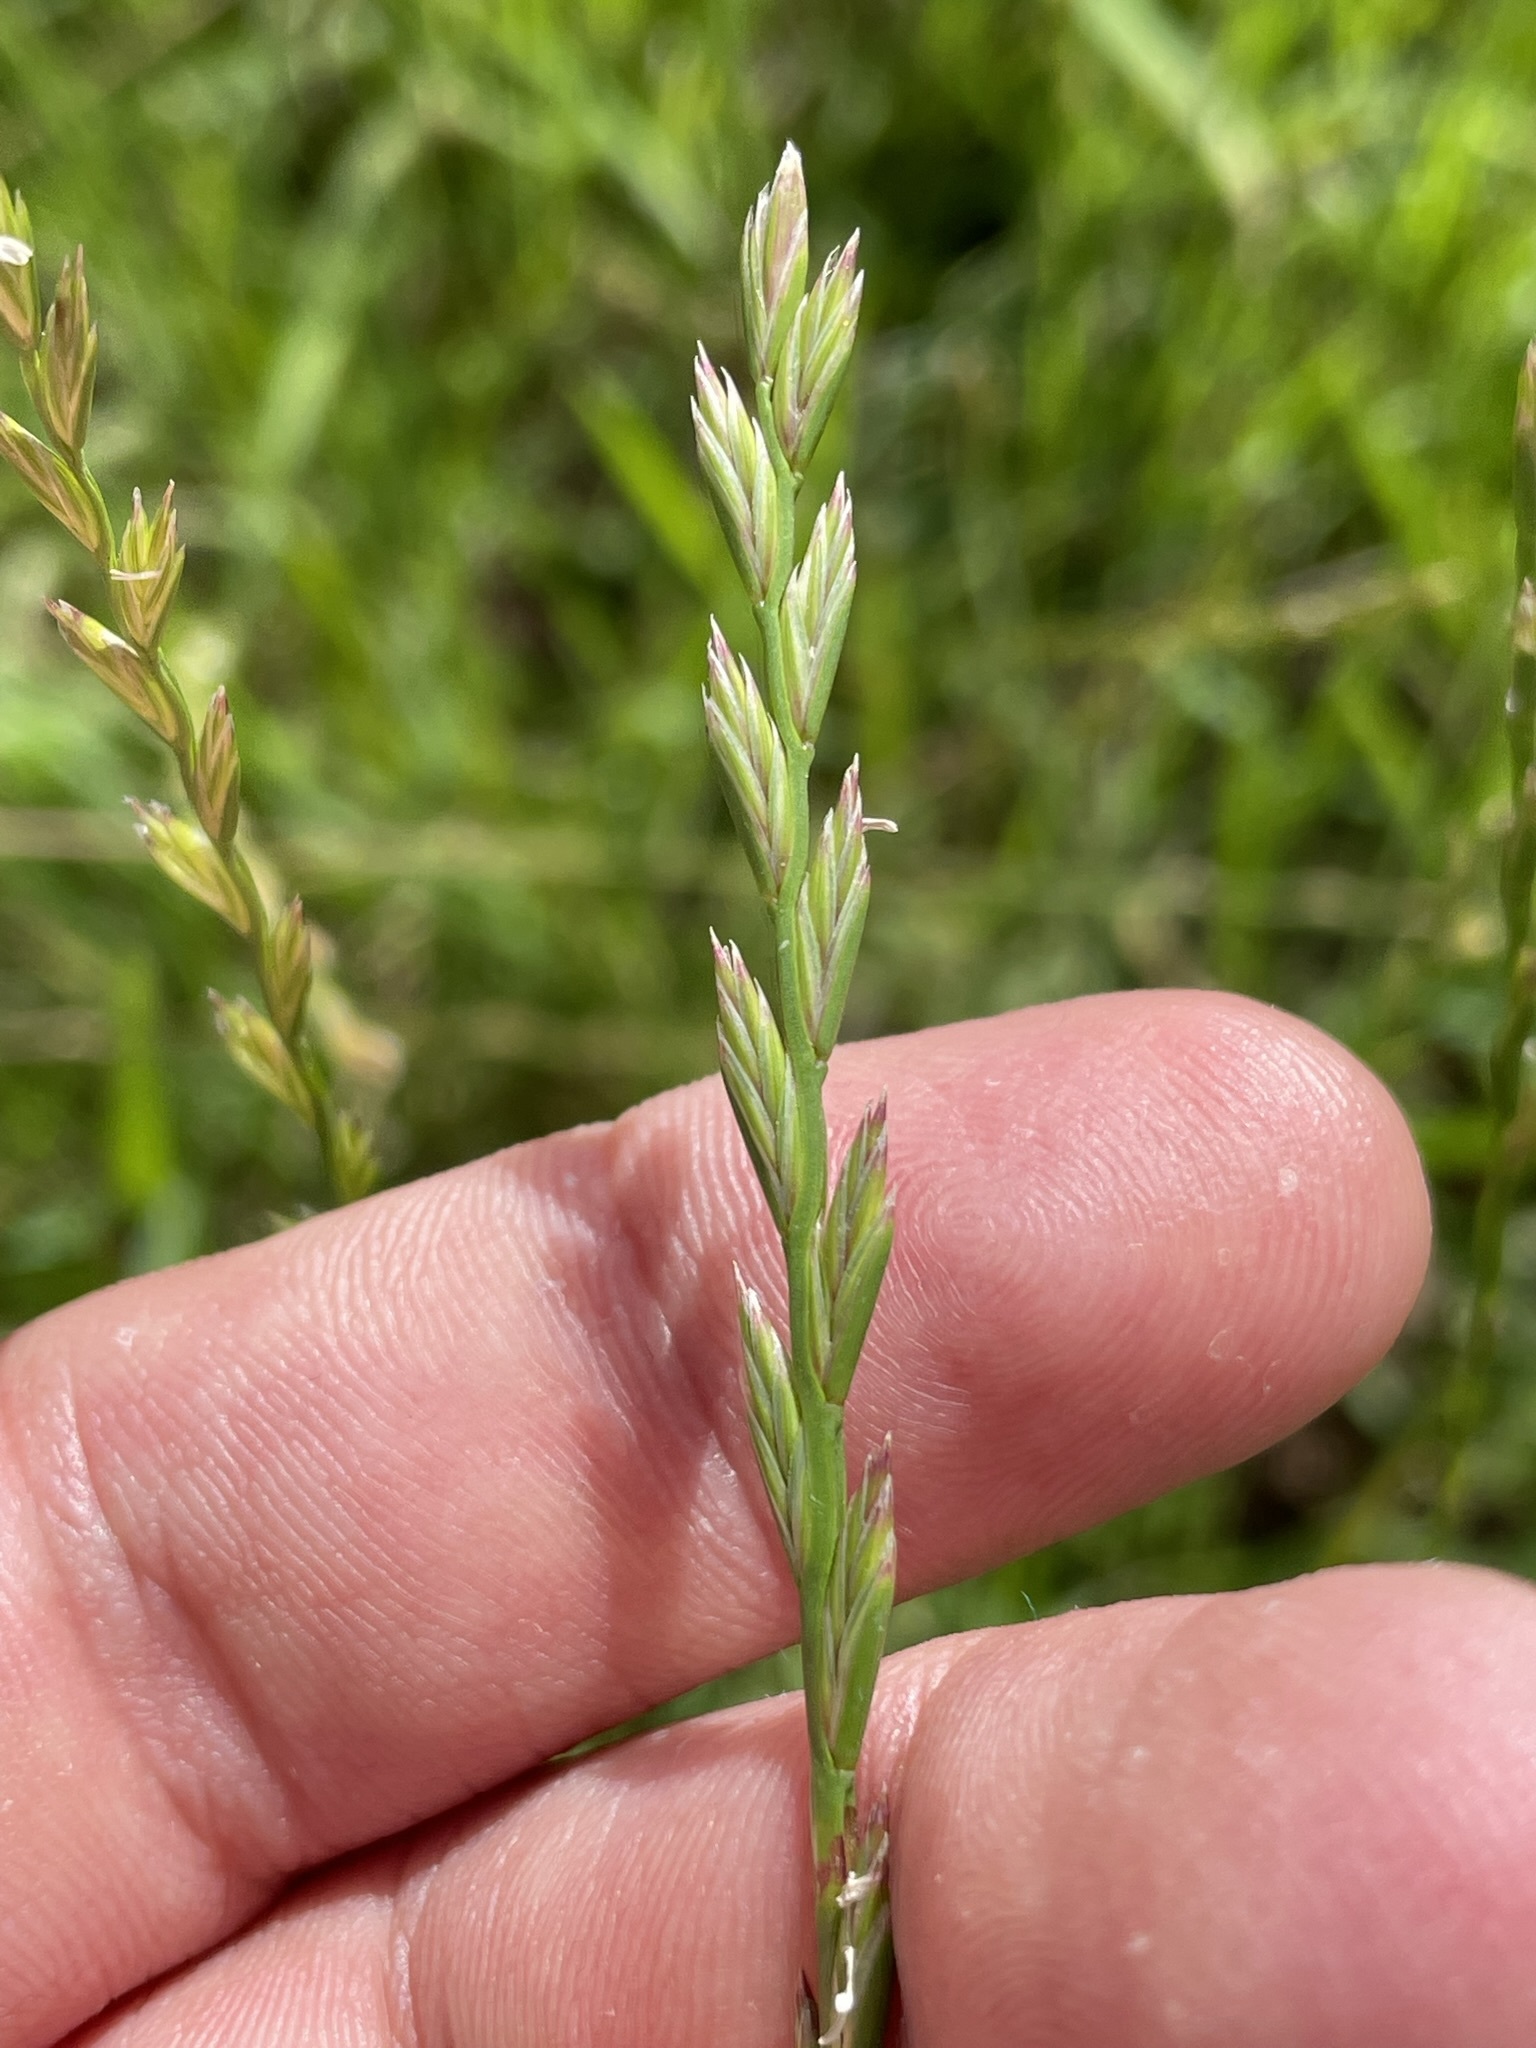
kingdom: Plantae
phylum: Tracheophyta
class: Liliopsida
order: Poales
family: Poaceae
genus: Lolium
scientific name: Lolium perenne
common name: Perennial ryegrass
